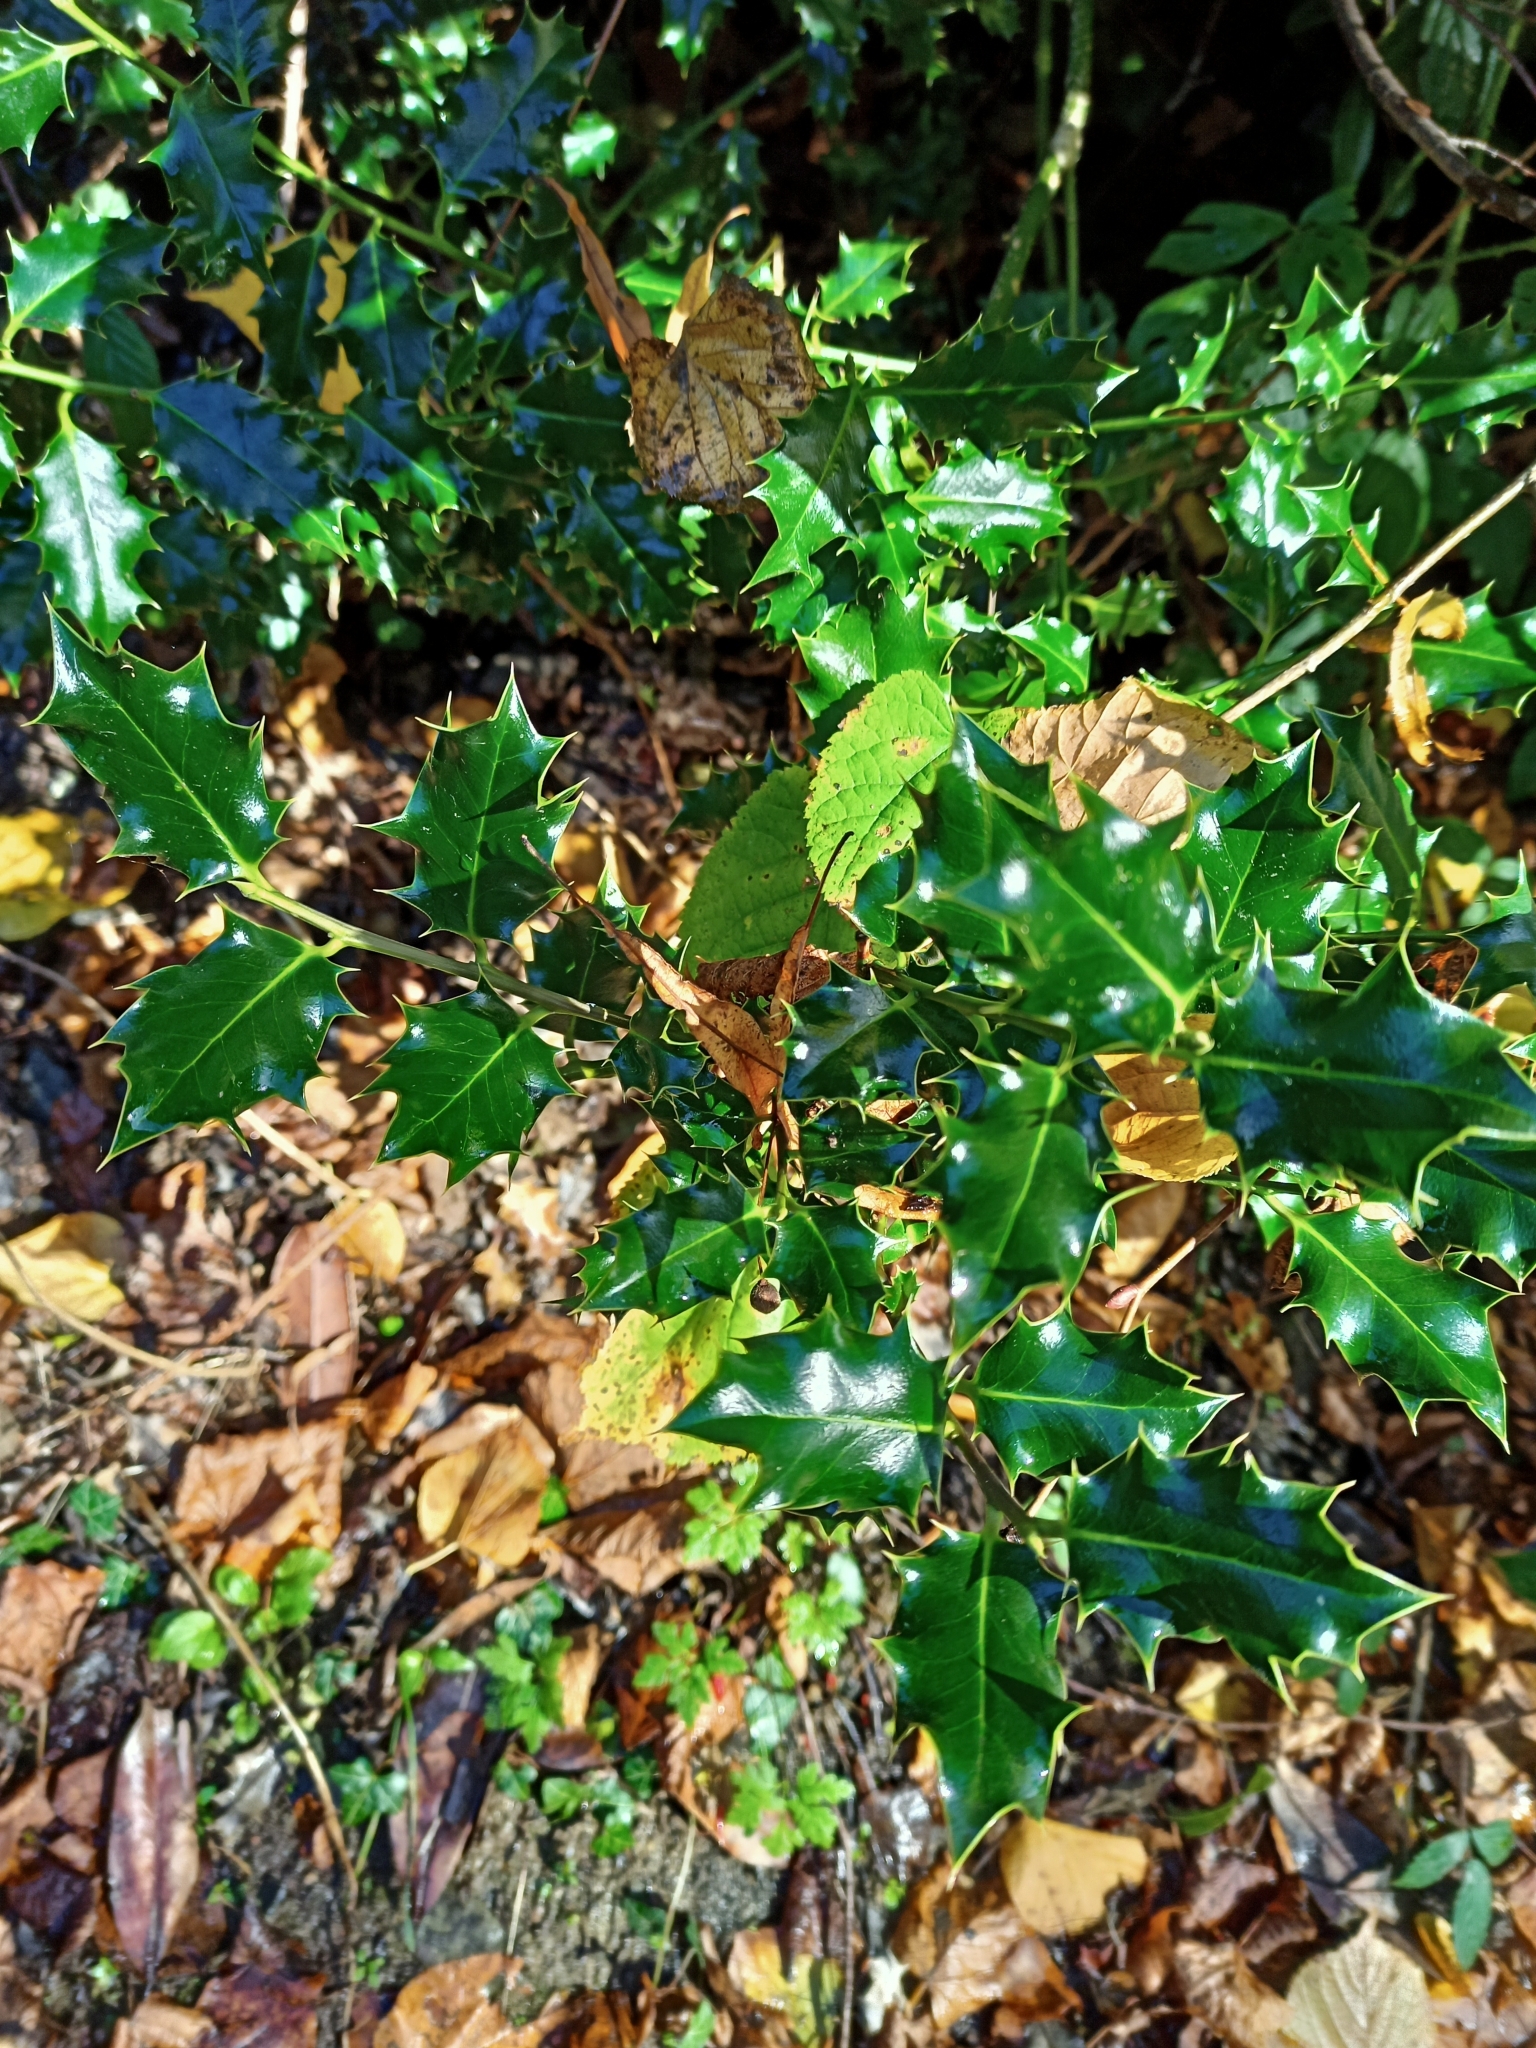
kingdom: Plantae
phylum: Tracheophyta
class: Magnoliopsida
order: Aquifoliales
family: Aquifoliaceae
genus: Ilex
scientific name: Ilex aquifolium
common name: English holly
